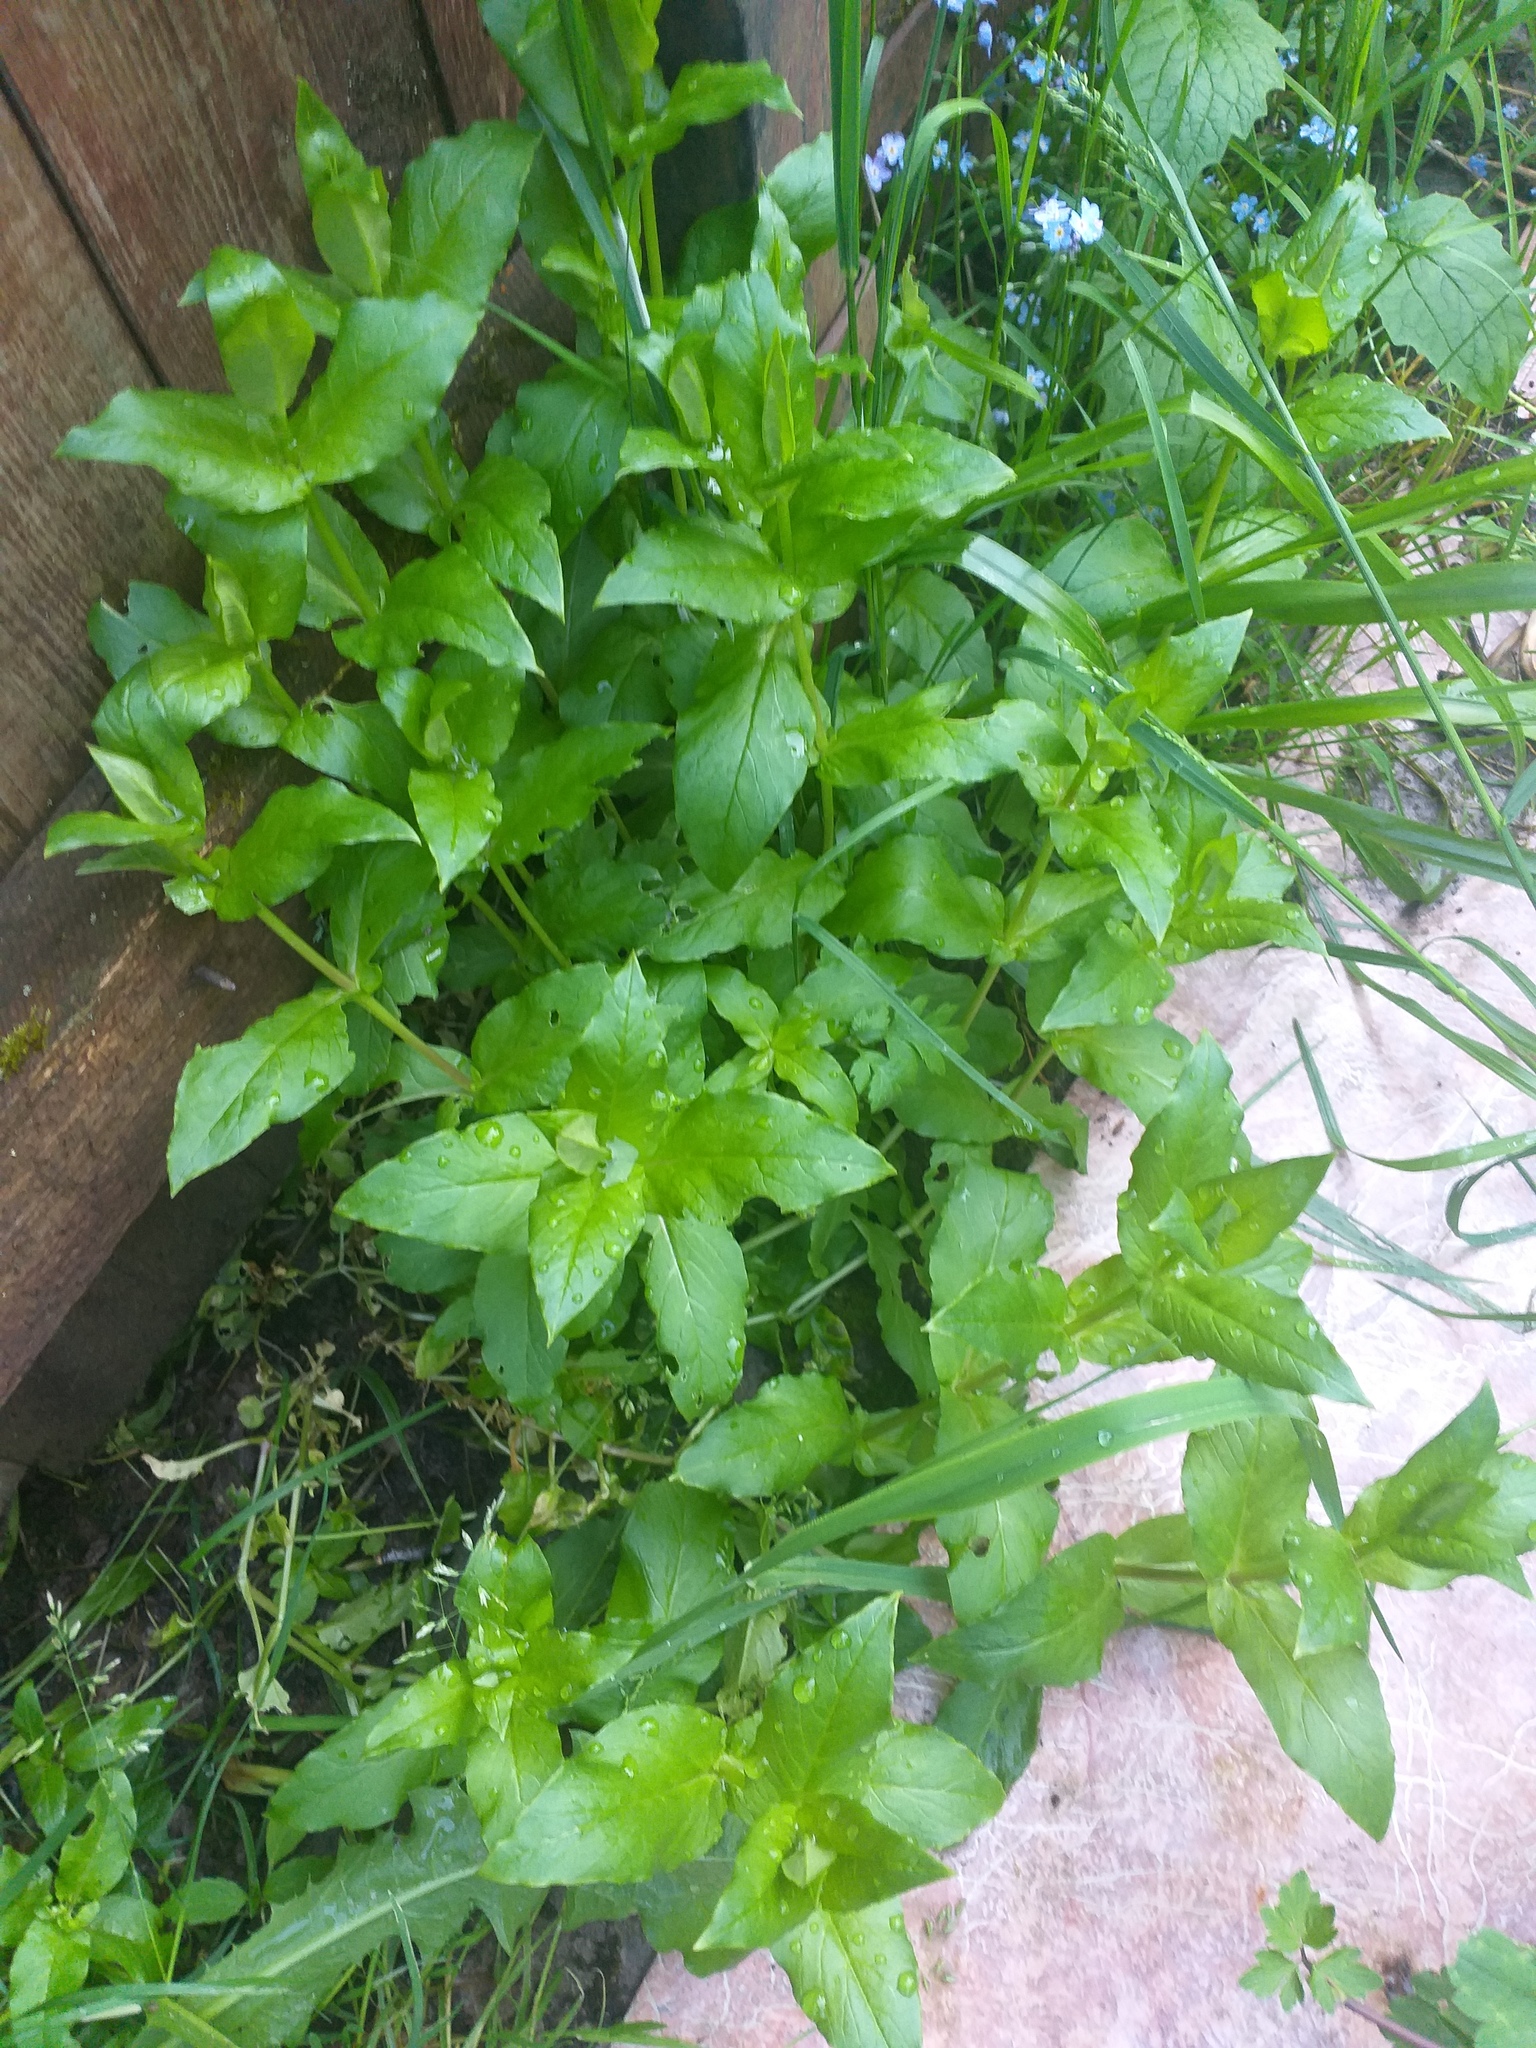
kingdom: Plantae
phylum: Tracheophyta
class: Magnoliopsida
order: Caryophyllales
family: Caryophyllaceae
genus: Stellaria
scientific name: Stellaria aquatica
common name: Water chickweed
